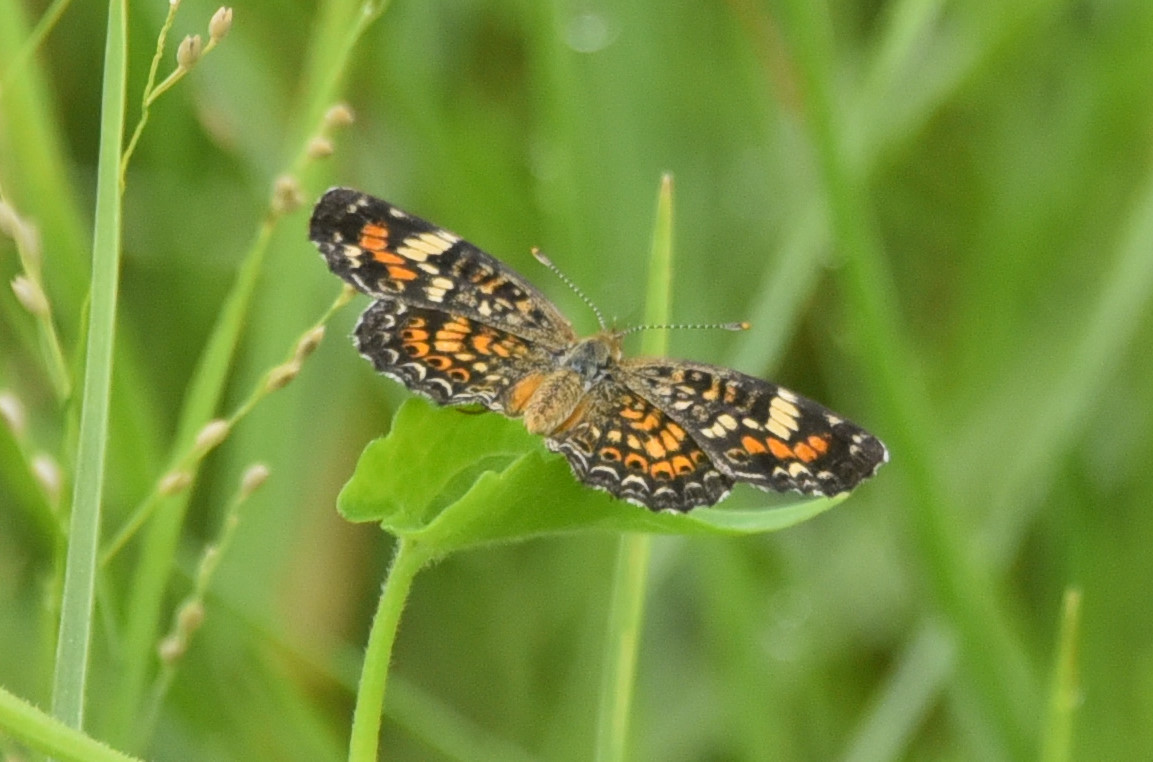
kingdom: Animalia
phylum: Arthropoda
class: Insecta
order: Lepidoptera
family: Nymphalidae
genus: Phyciodes
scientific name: Phyciodes phaon
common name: Phaon crescent
